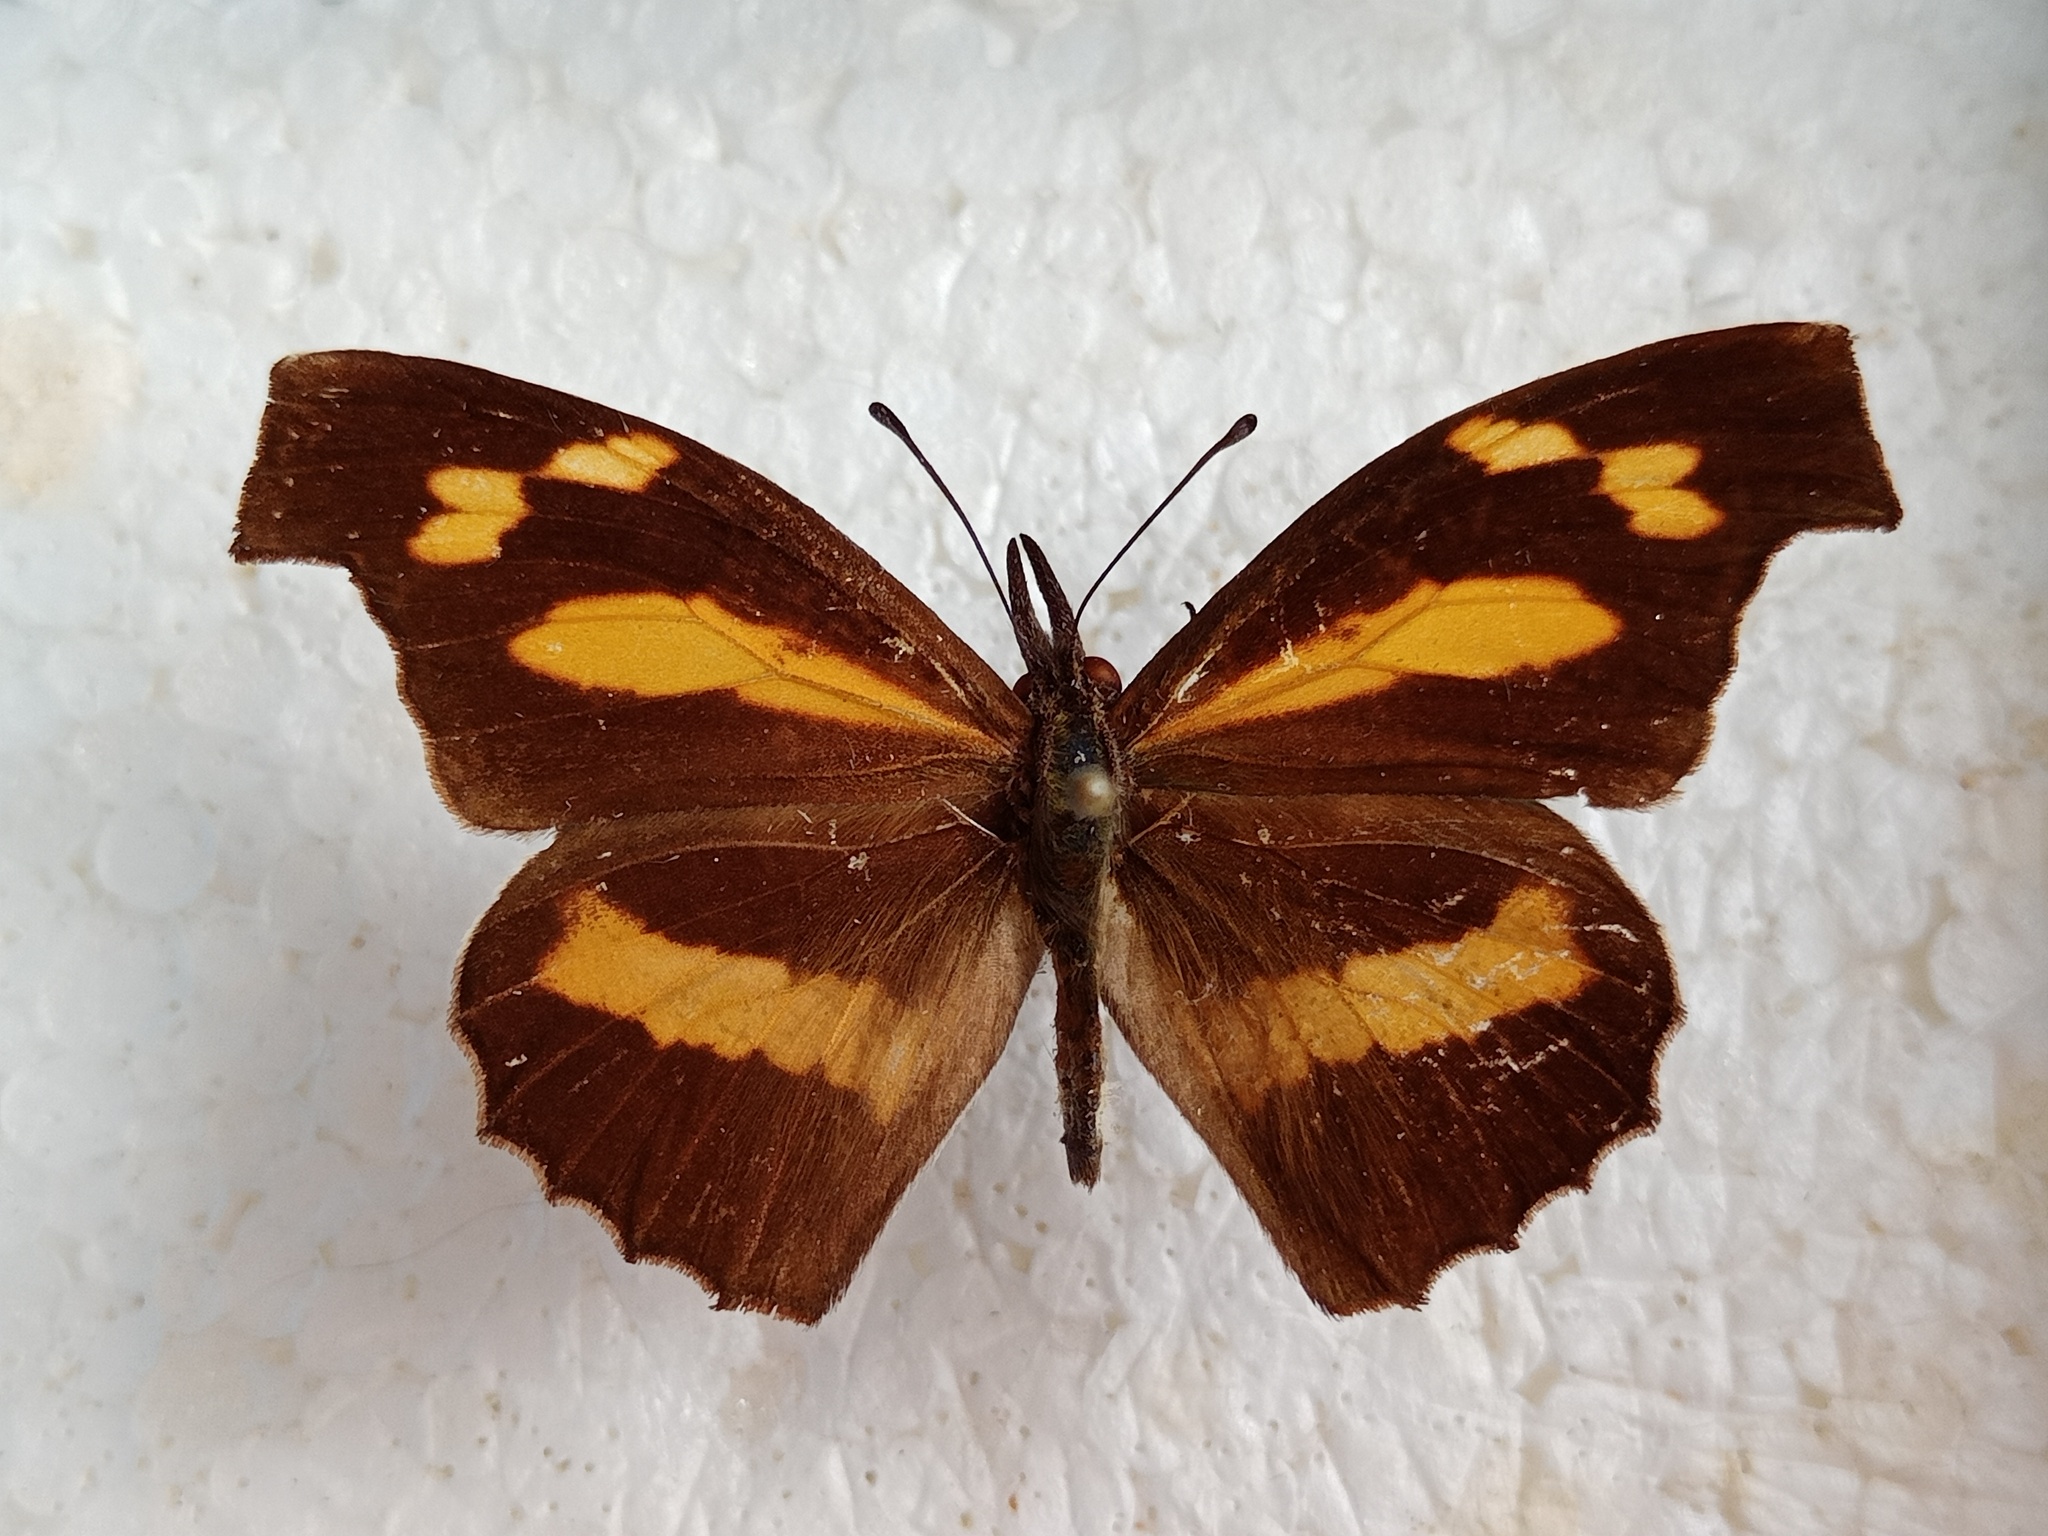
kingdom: Animalia
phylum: Arthropoda
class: Insecta
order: Lepidoptera
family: Nymphalidae
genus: Libythea
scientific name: Libythea myrrha
